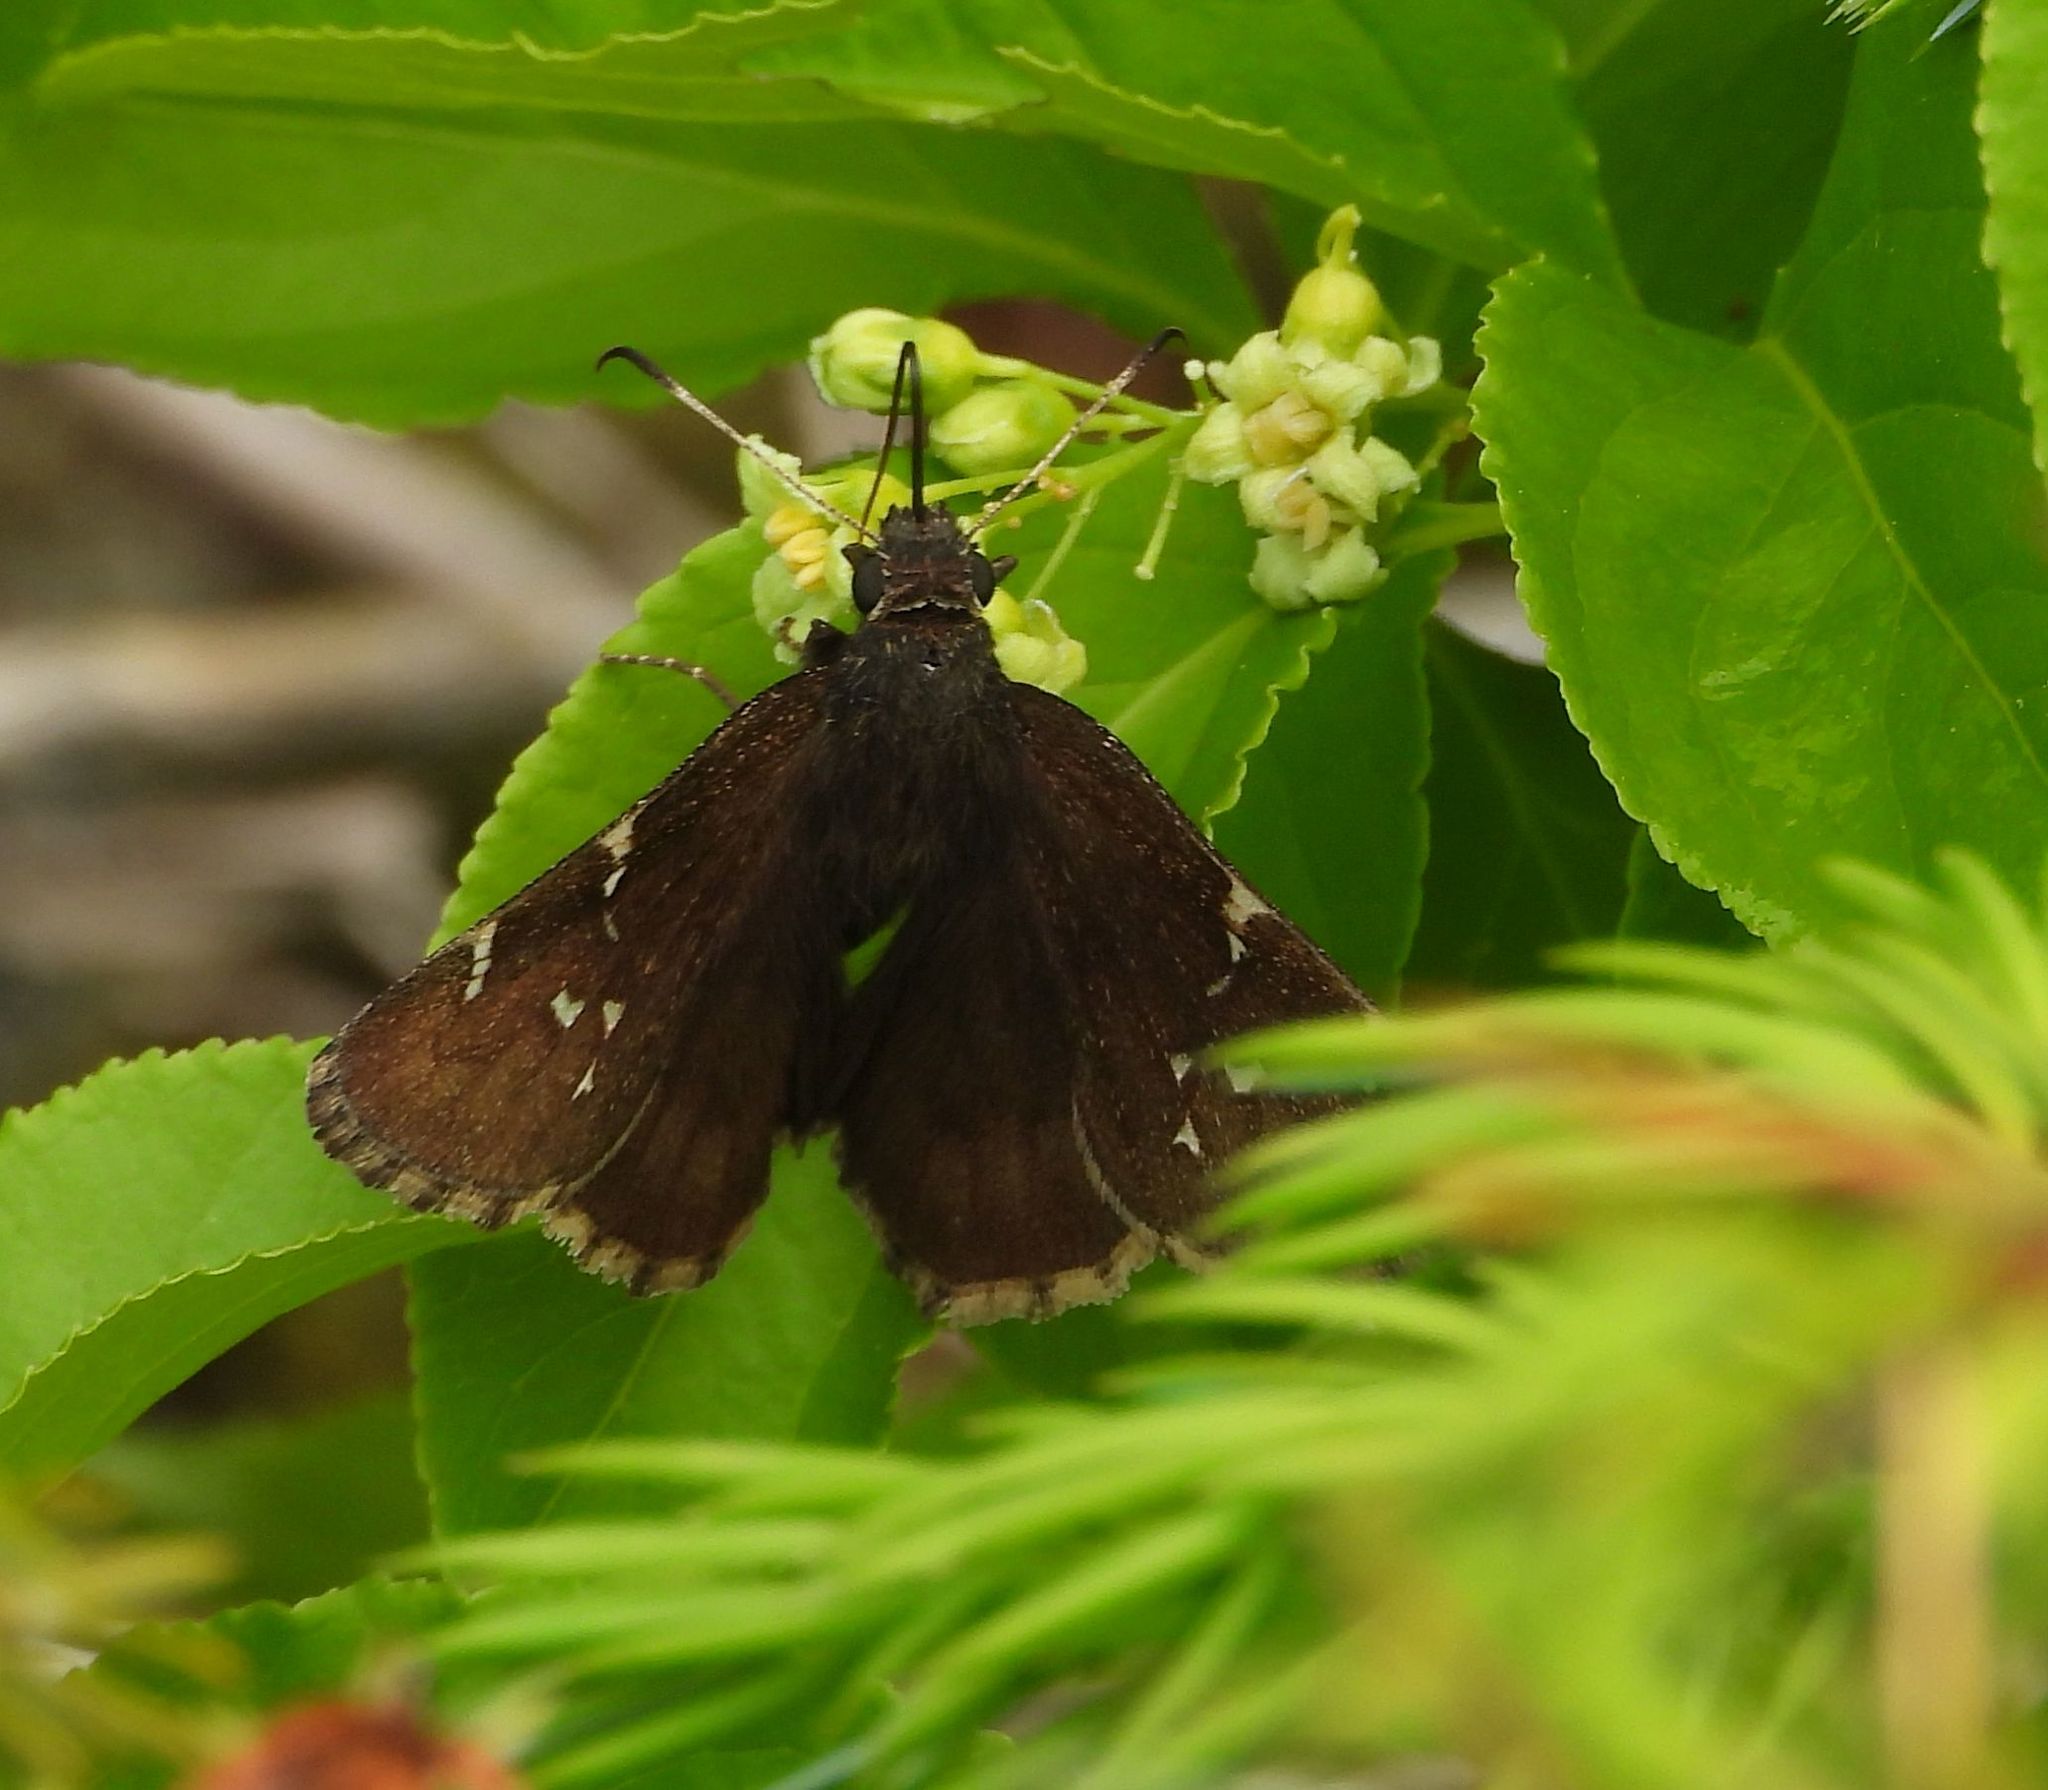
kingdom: Animalia
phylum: Arthropoda
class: Insecta
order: Lepidoptera
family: Hesperiidae
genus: Thorybes
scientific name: Thorybes pylades
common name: Northern cloudywing
